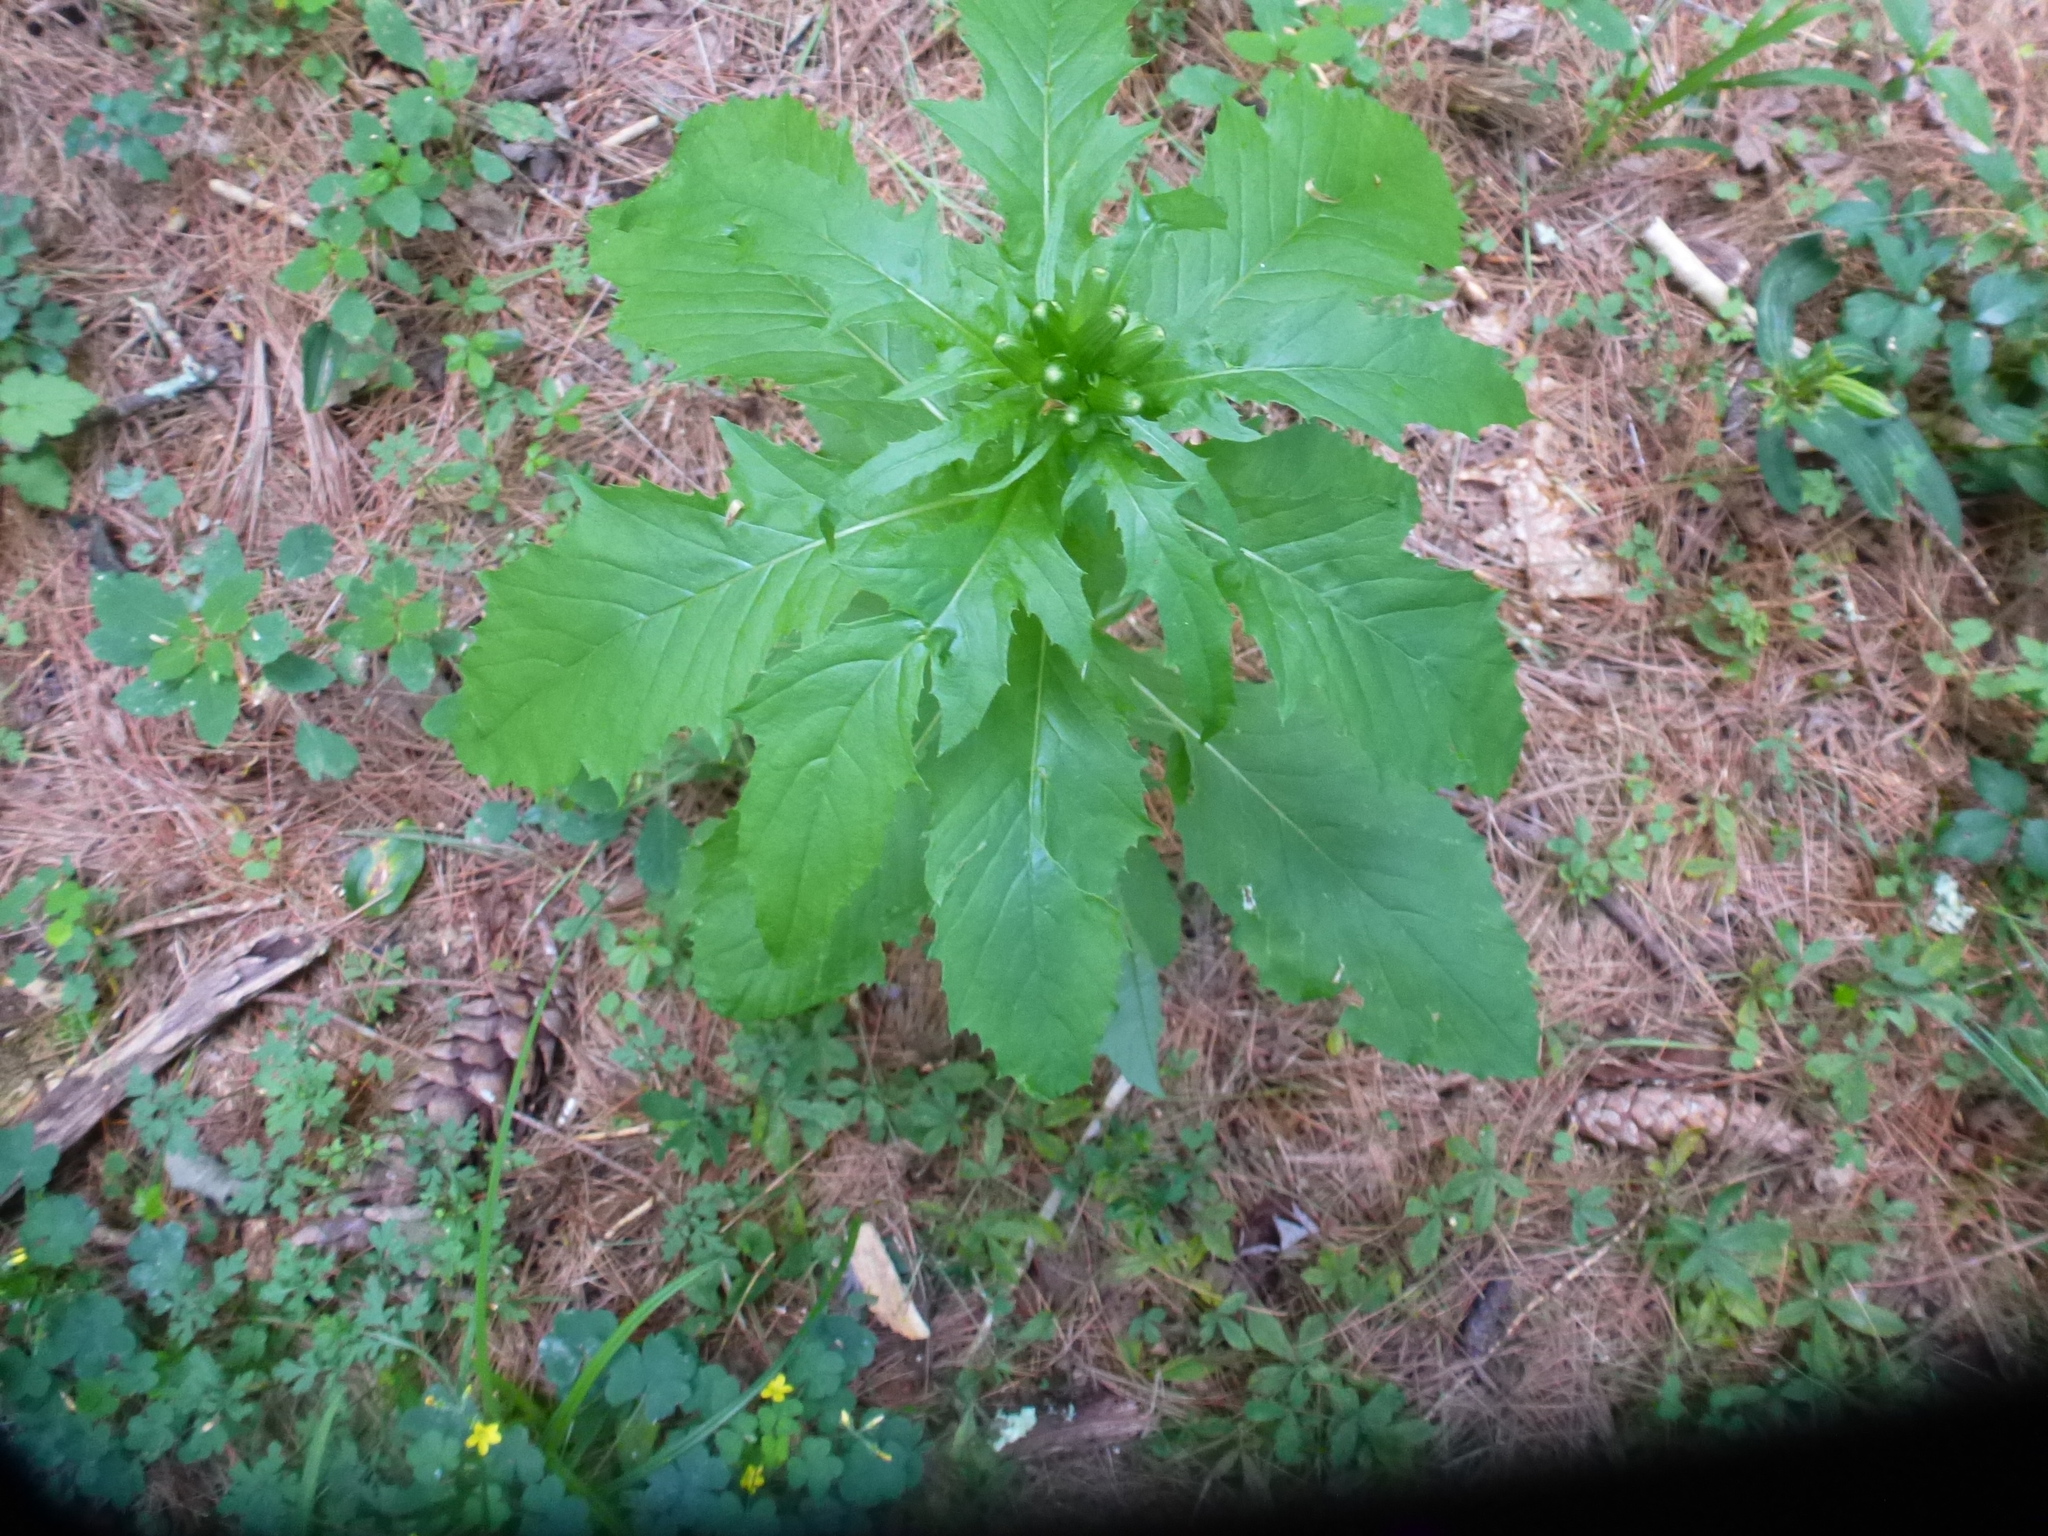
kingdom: Plantae
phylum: Tracheophyta
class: Magnoliopsida
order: Asterales
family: Asteraceae
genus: Erechtites
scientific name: Erechtites hieraciifolius
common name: American burnweed
